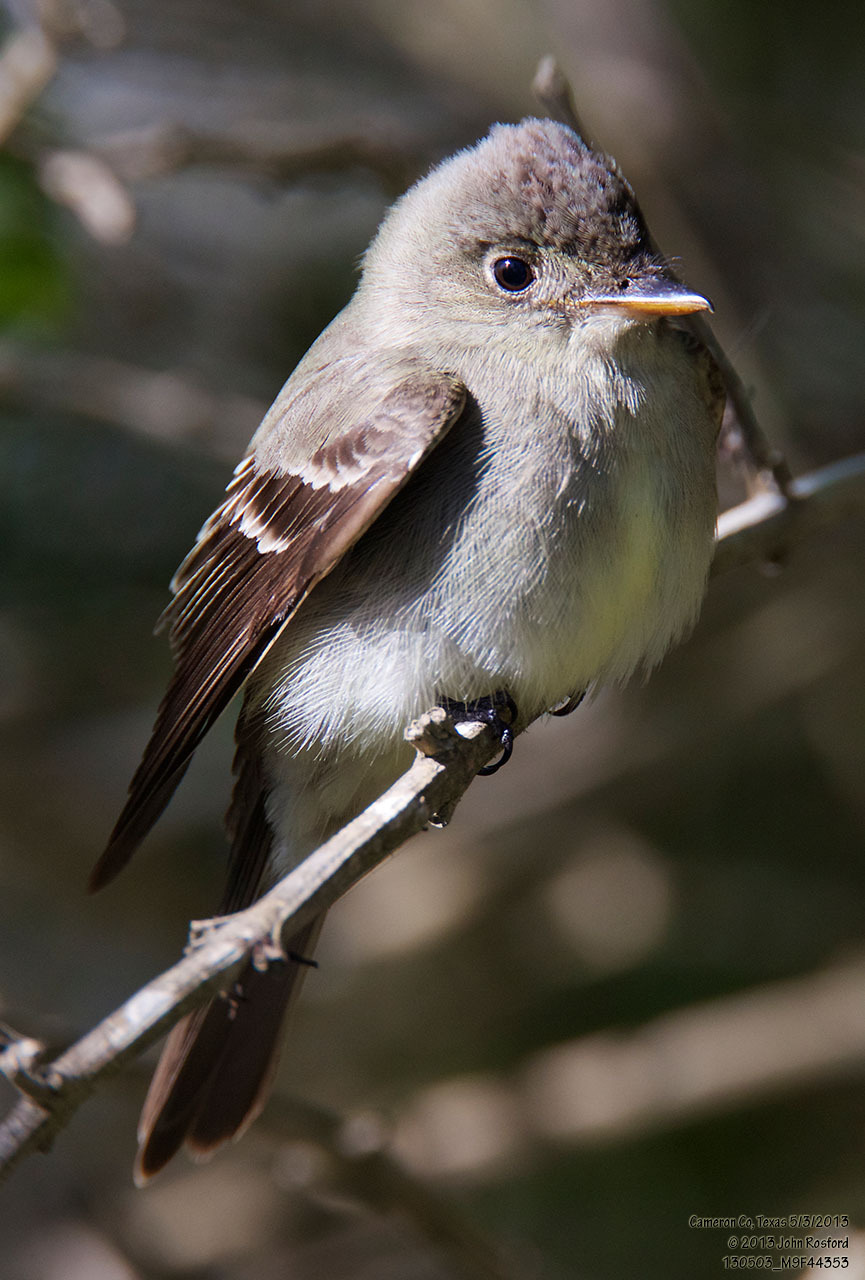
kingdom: Animalia
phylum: Chordata
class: Aves
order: Passeriformes
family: Tyrannidae
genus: Contopus
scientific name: Contopus virens
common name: Eastern wood-pewee
